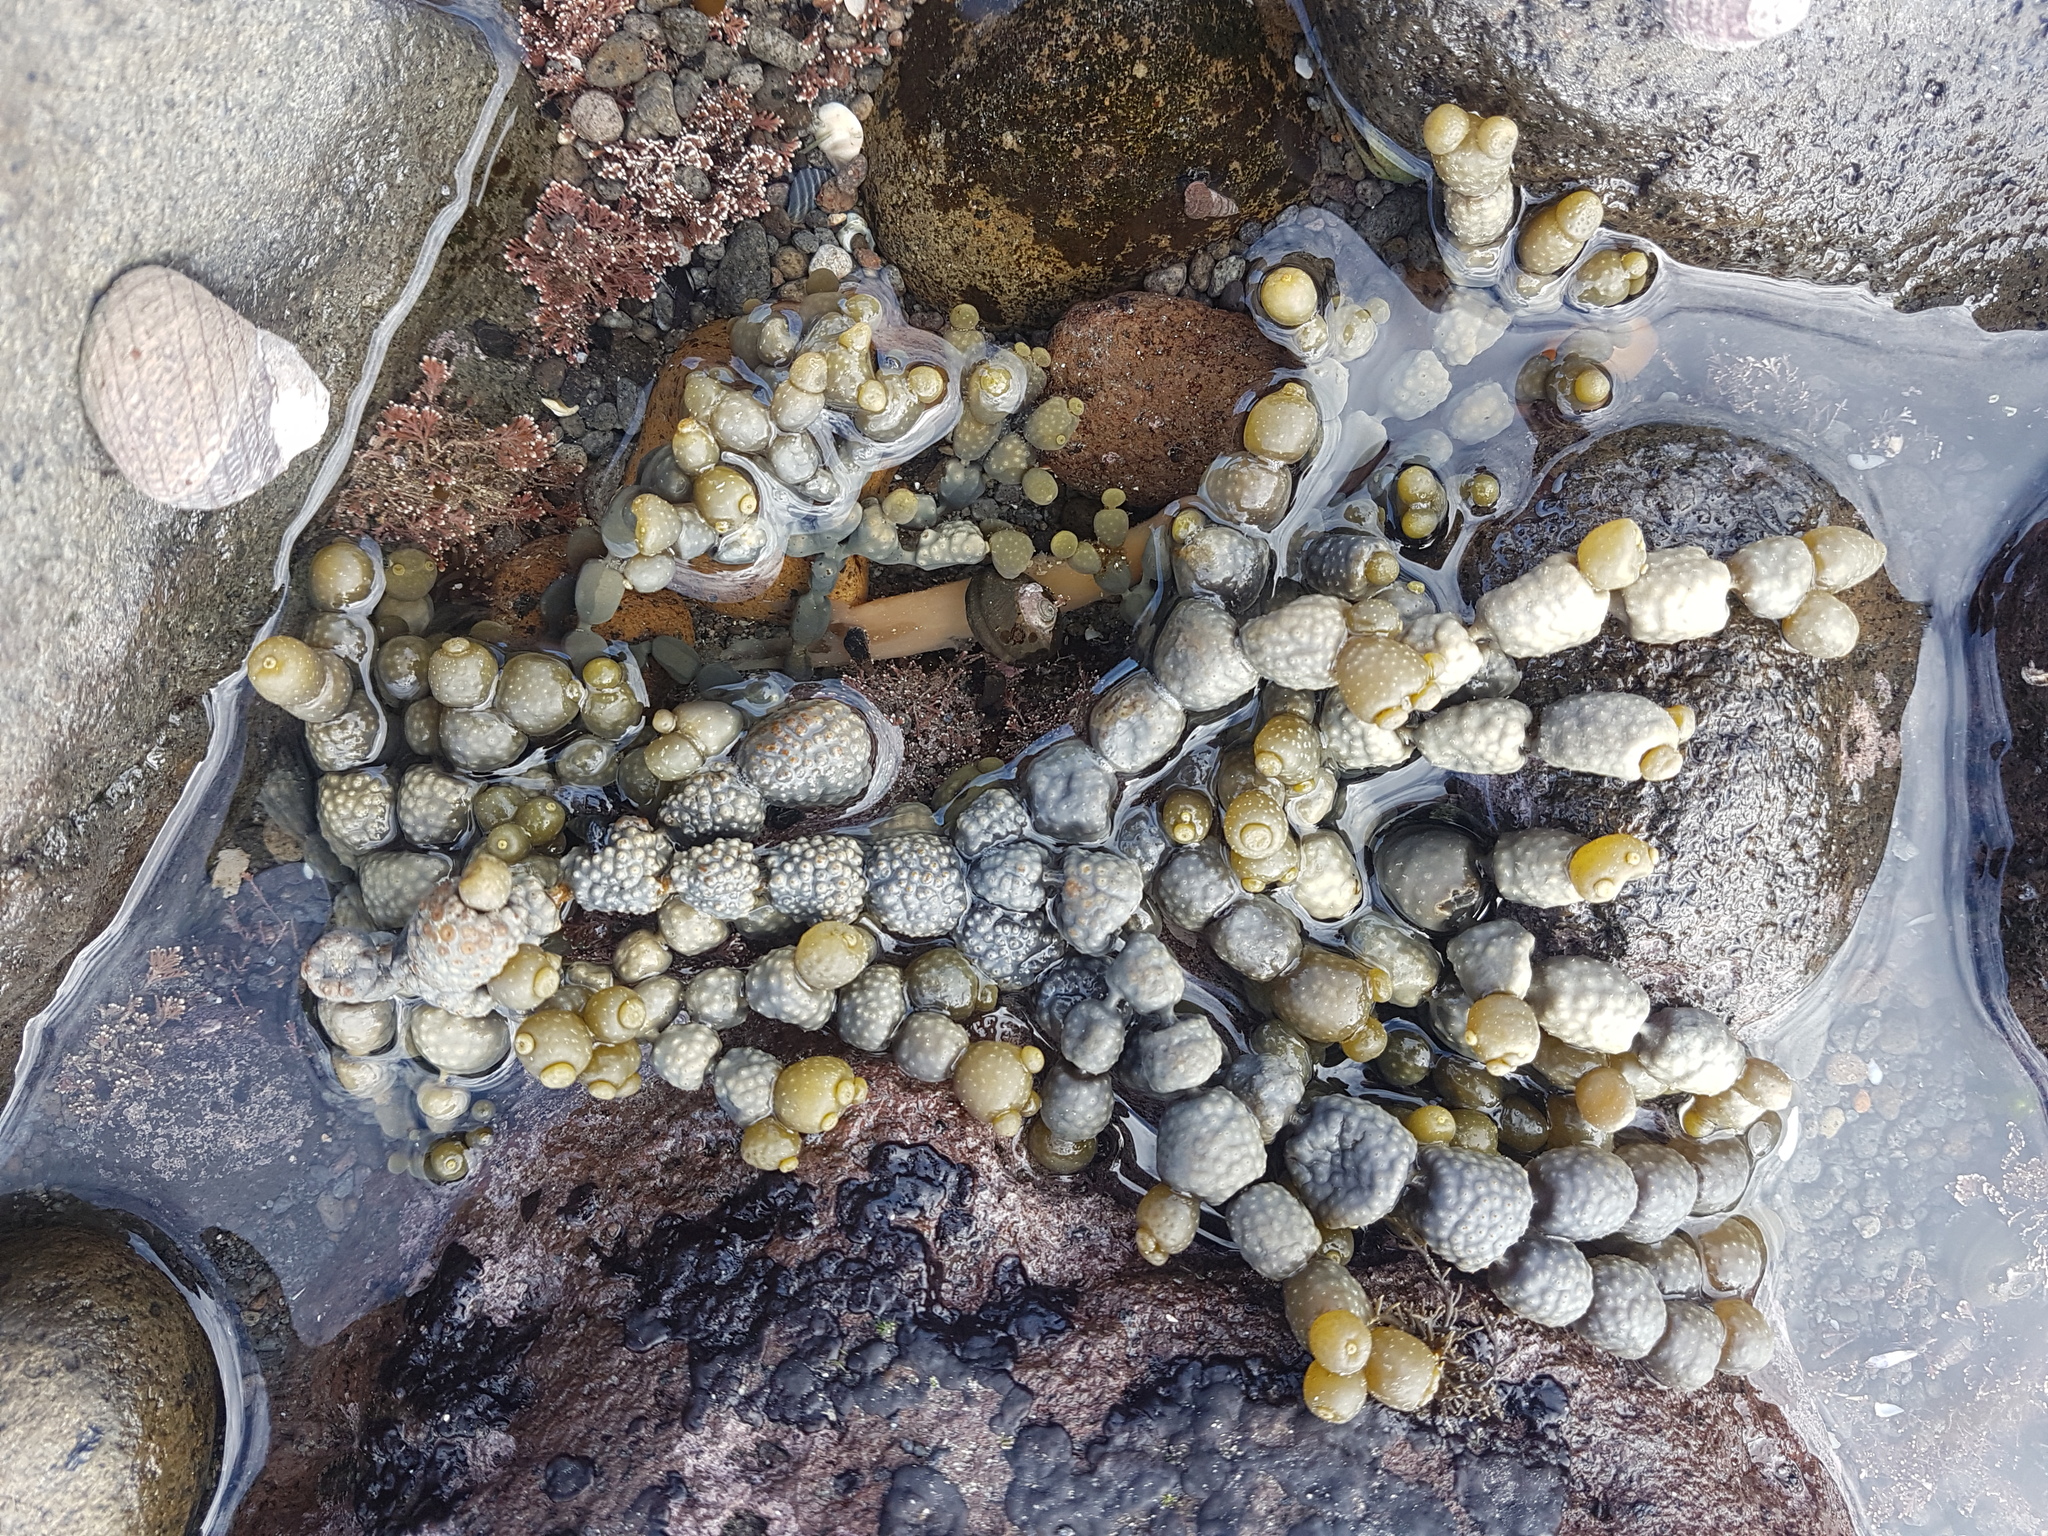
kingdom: Chromista
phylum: Ochrophyta
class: Phaeophyceae
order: Fucales
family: Hormosiraceae
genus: Hormosira
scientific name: Hormosira banksii
